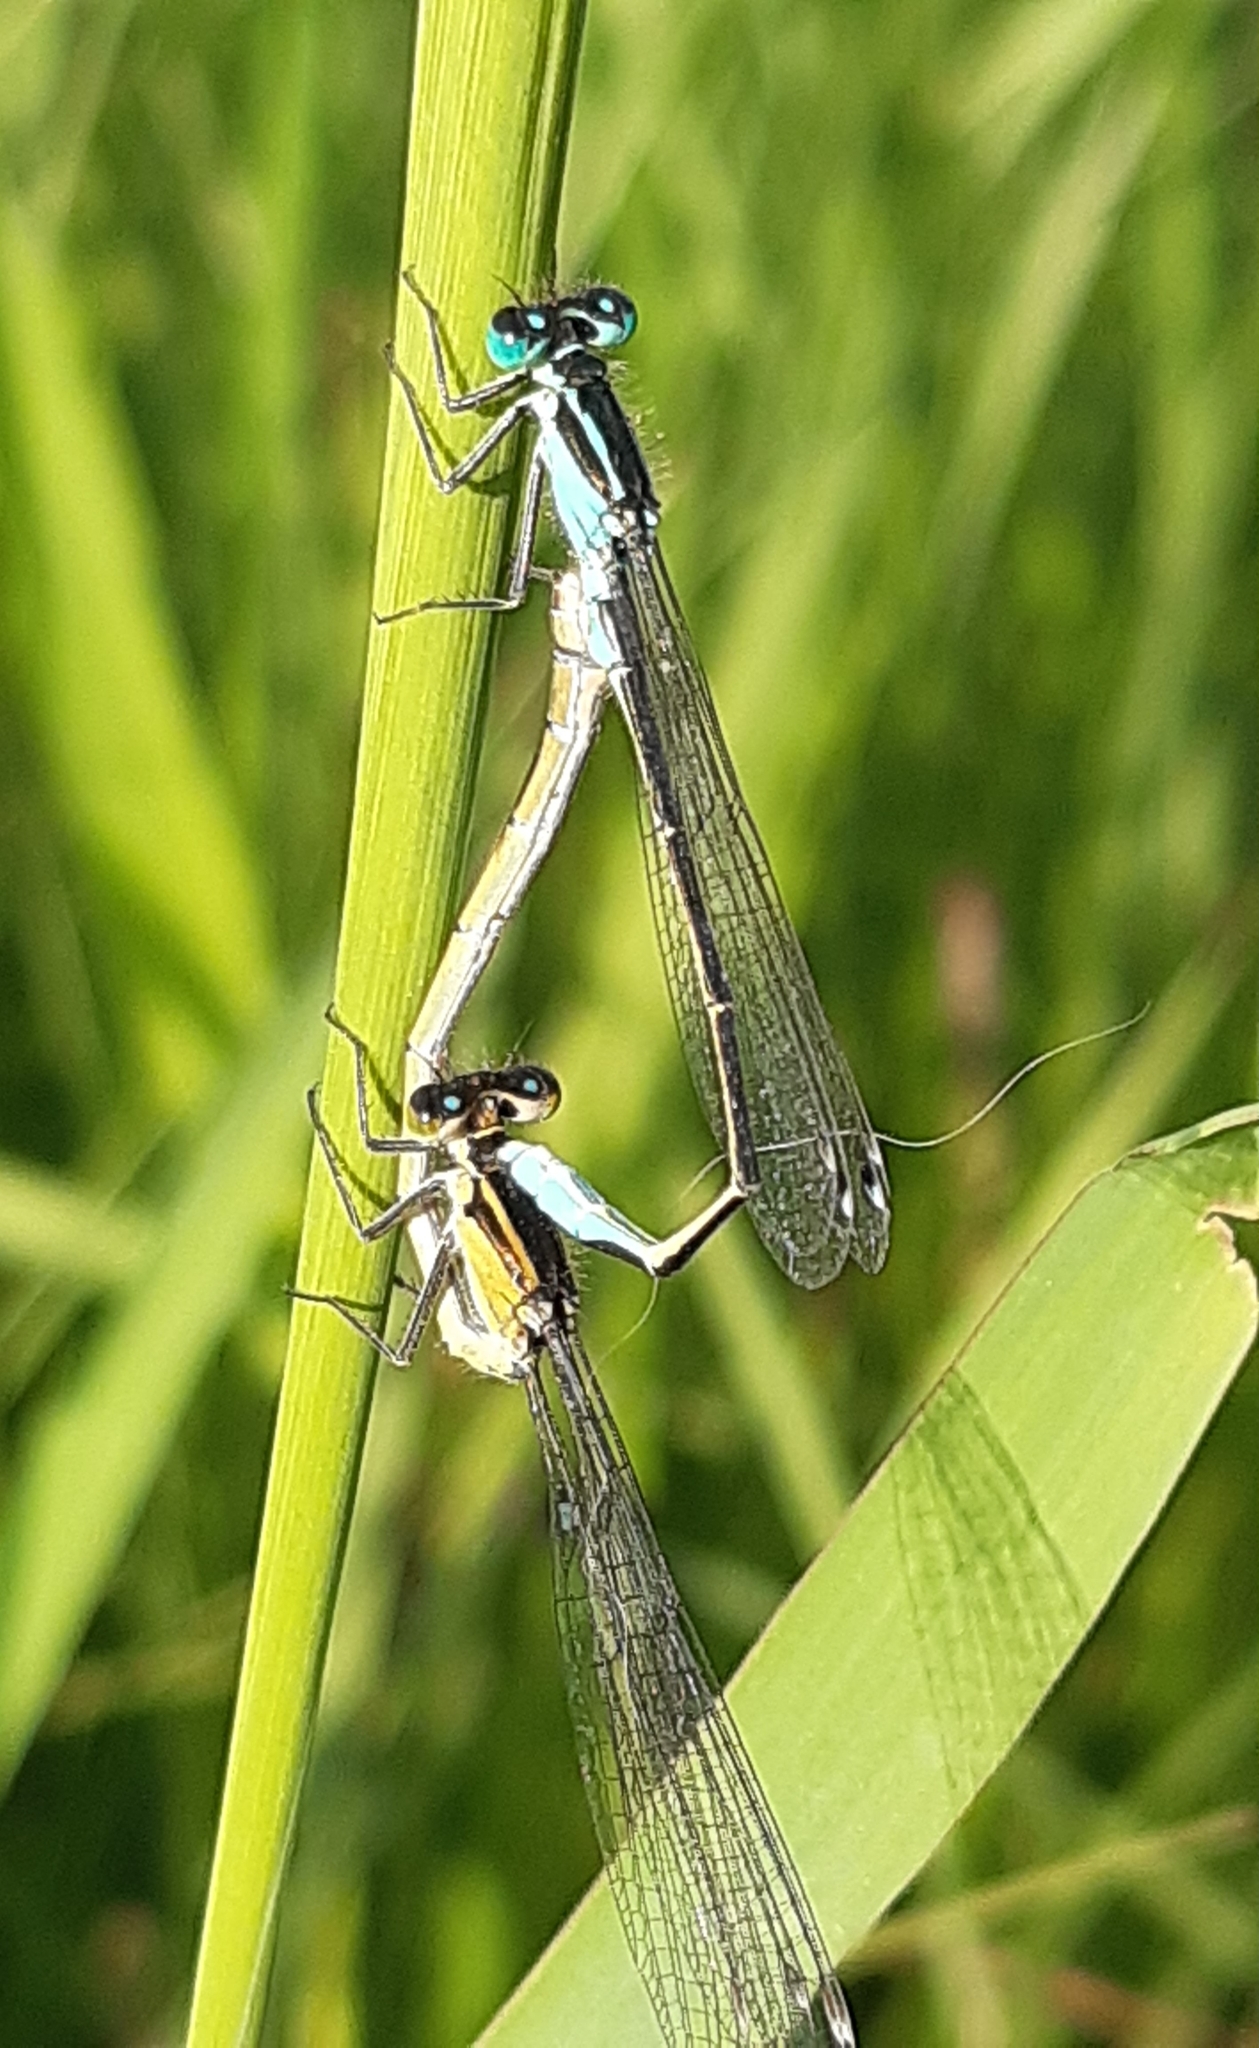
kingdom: Animalia
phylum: Arthropoda
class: Insecta
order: Odonata
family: Coenagrionidae
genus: Ischnura
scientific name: Ischnura elegans
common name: Blue-tailed damselfly
